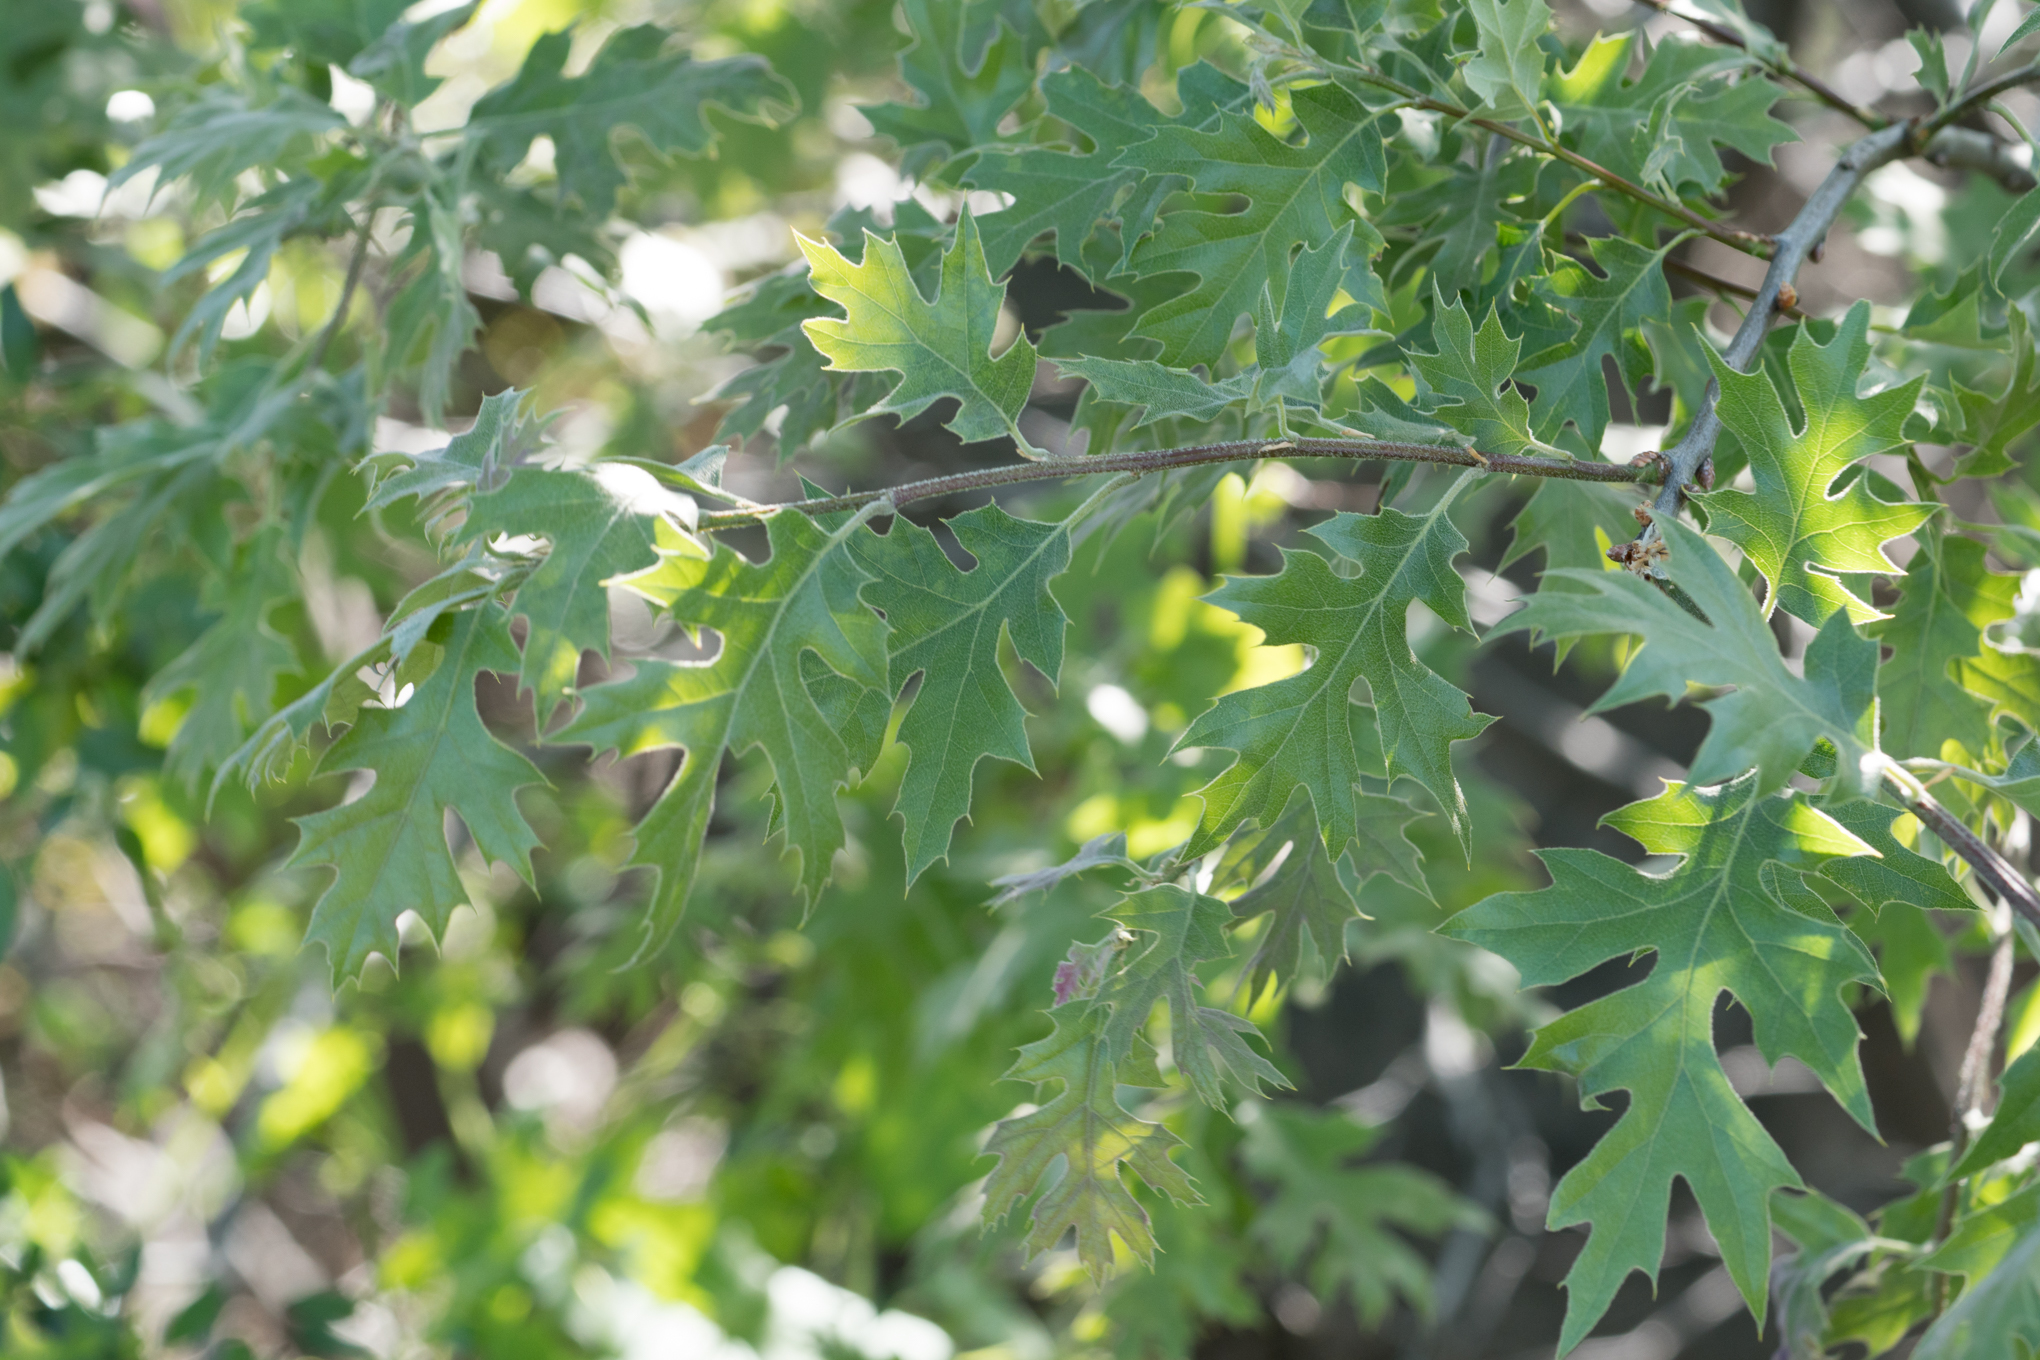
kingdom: Plantae
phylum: Tracheophyta
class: Magnoliopsida
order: Fagales
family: Fagaceae
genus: Quercus
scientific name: Quercus kelloggii
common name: California black oak
